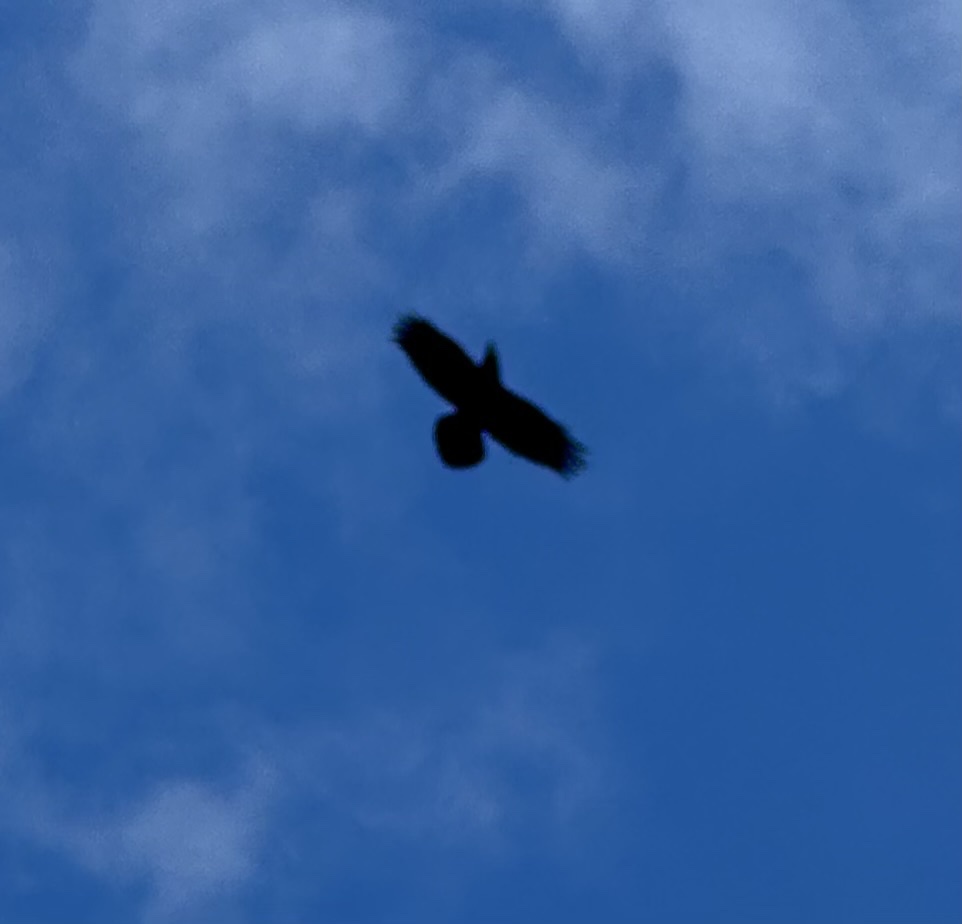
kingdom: Animalia
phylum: Chordata
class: Aves
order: Passeriformes
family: Corvidae
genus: Corvus
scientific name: Corvus corax
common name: Common raven
